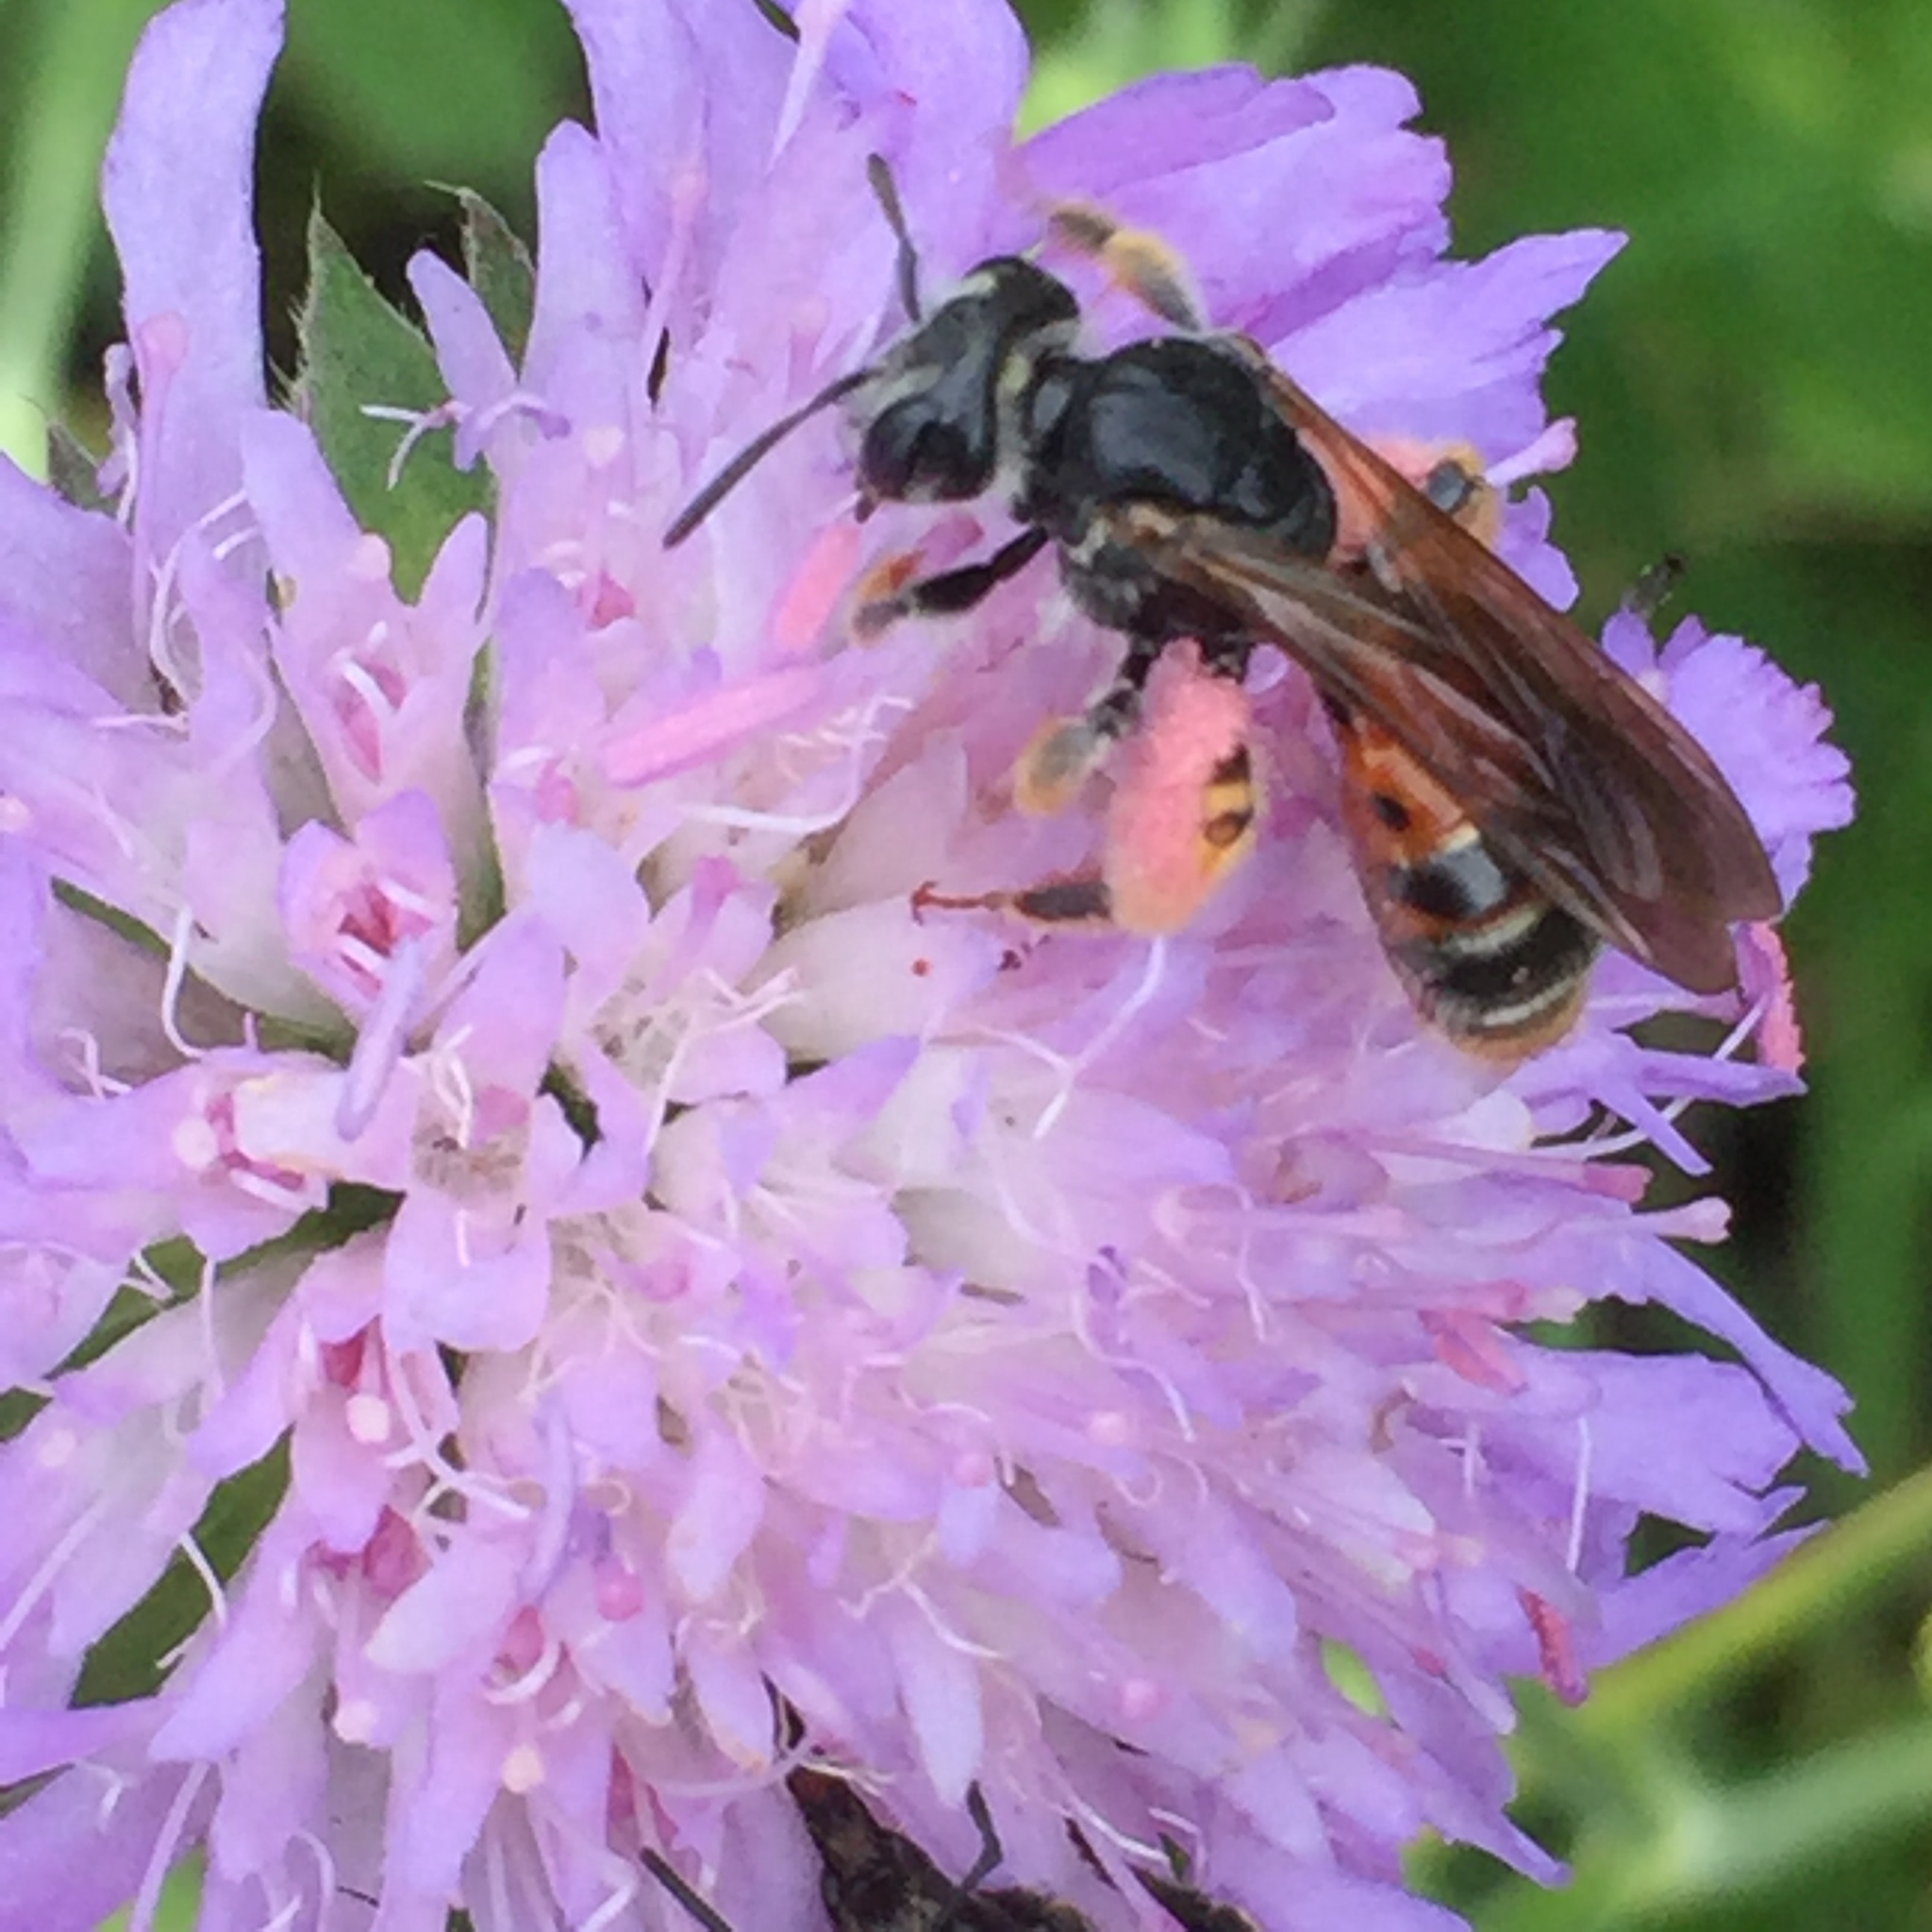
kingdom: Animalia
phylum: Arthropoda
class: Insecta
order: Hymenoptera
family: Andrenidae
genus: Andrena
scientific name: Andrena hattorfiana
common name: Large scabious mining bee
